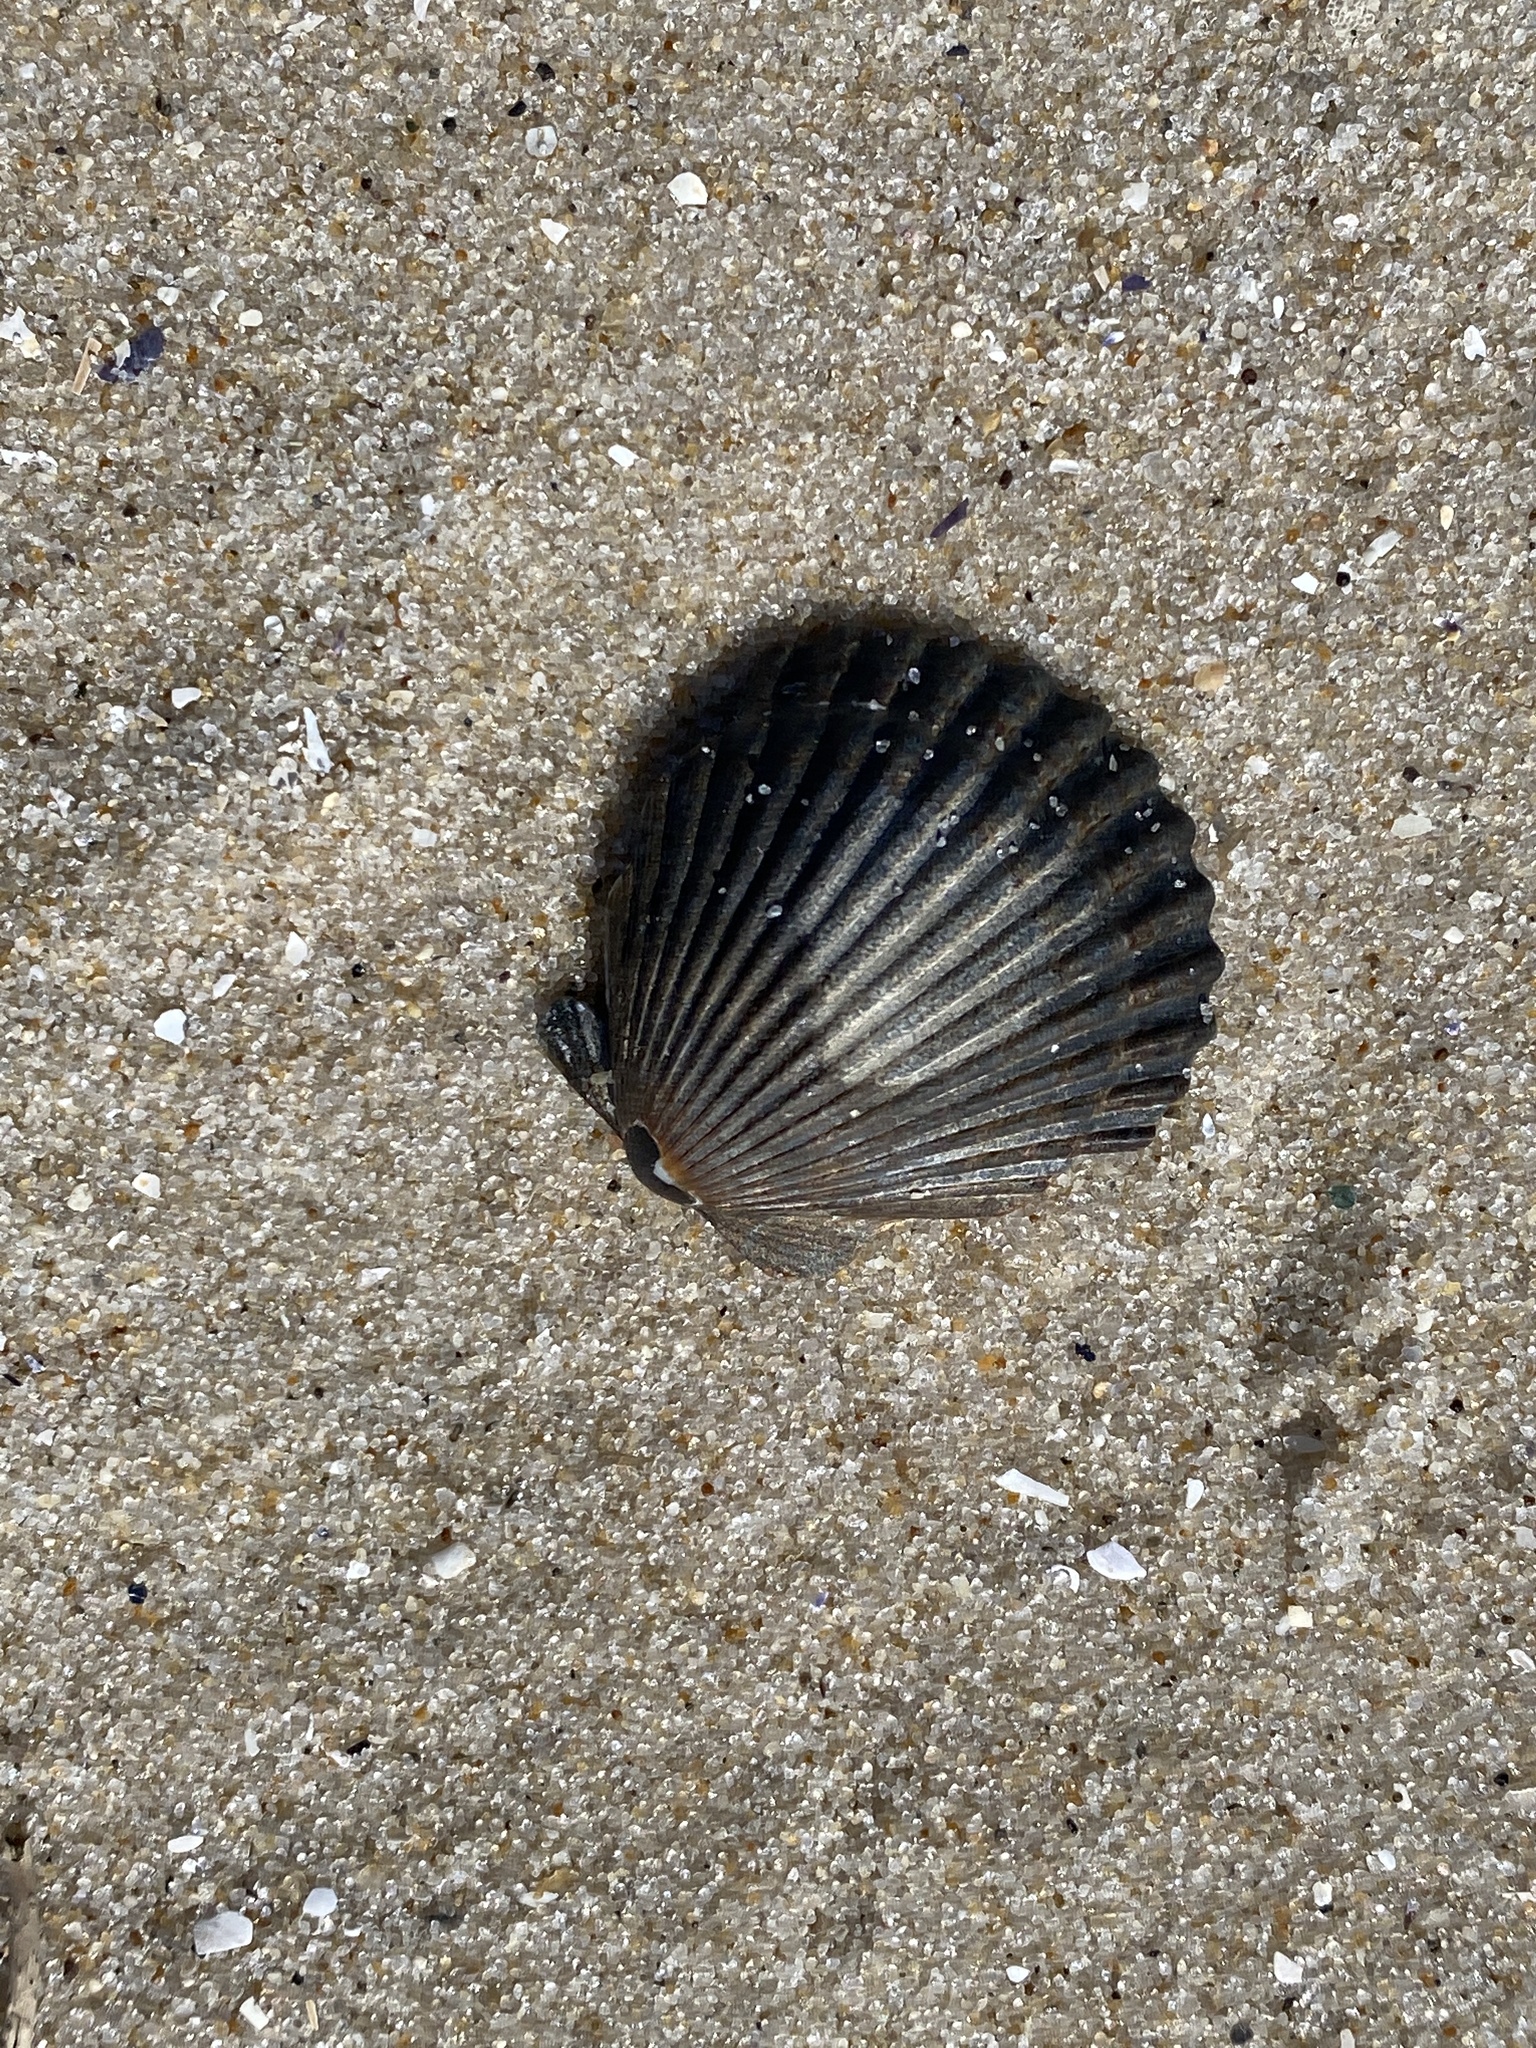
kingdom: Animalia
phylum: Mollusca
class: Bivalvia
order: Pectinida
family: Pectinidae
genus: Argopecten
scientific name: Argopecten irradians
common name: Atlantic bay scallop
